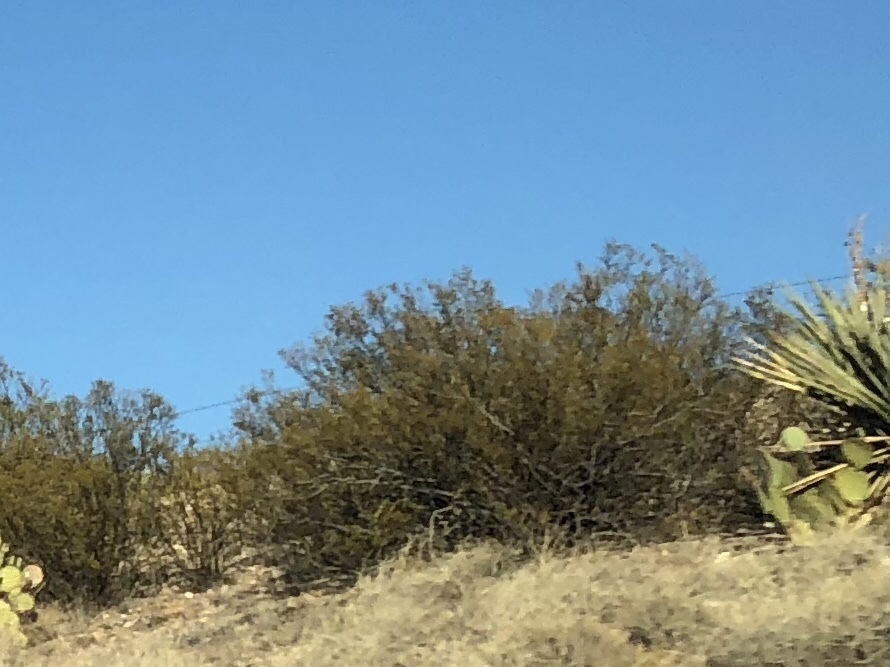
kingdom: Plantae
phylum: Tracheophyta
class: Magnoliopsida
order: Zygophyllales
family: Zygophyllaceae
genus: Larrea
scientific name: Larrea tridentata
